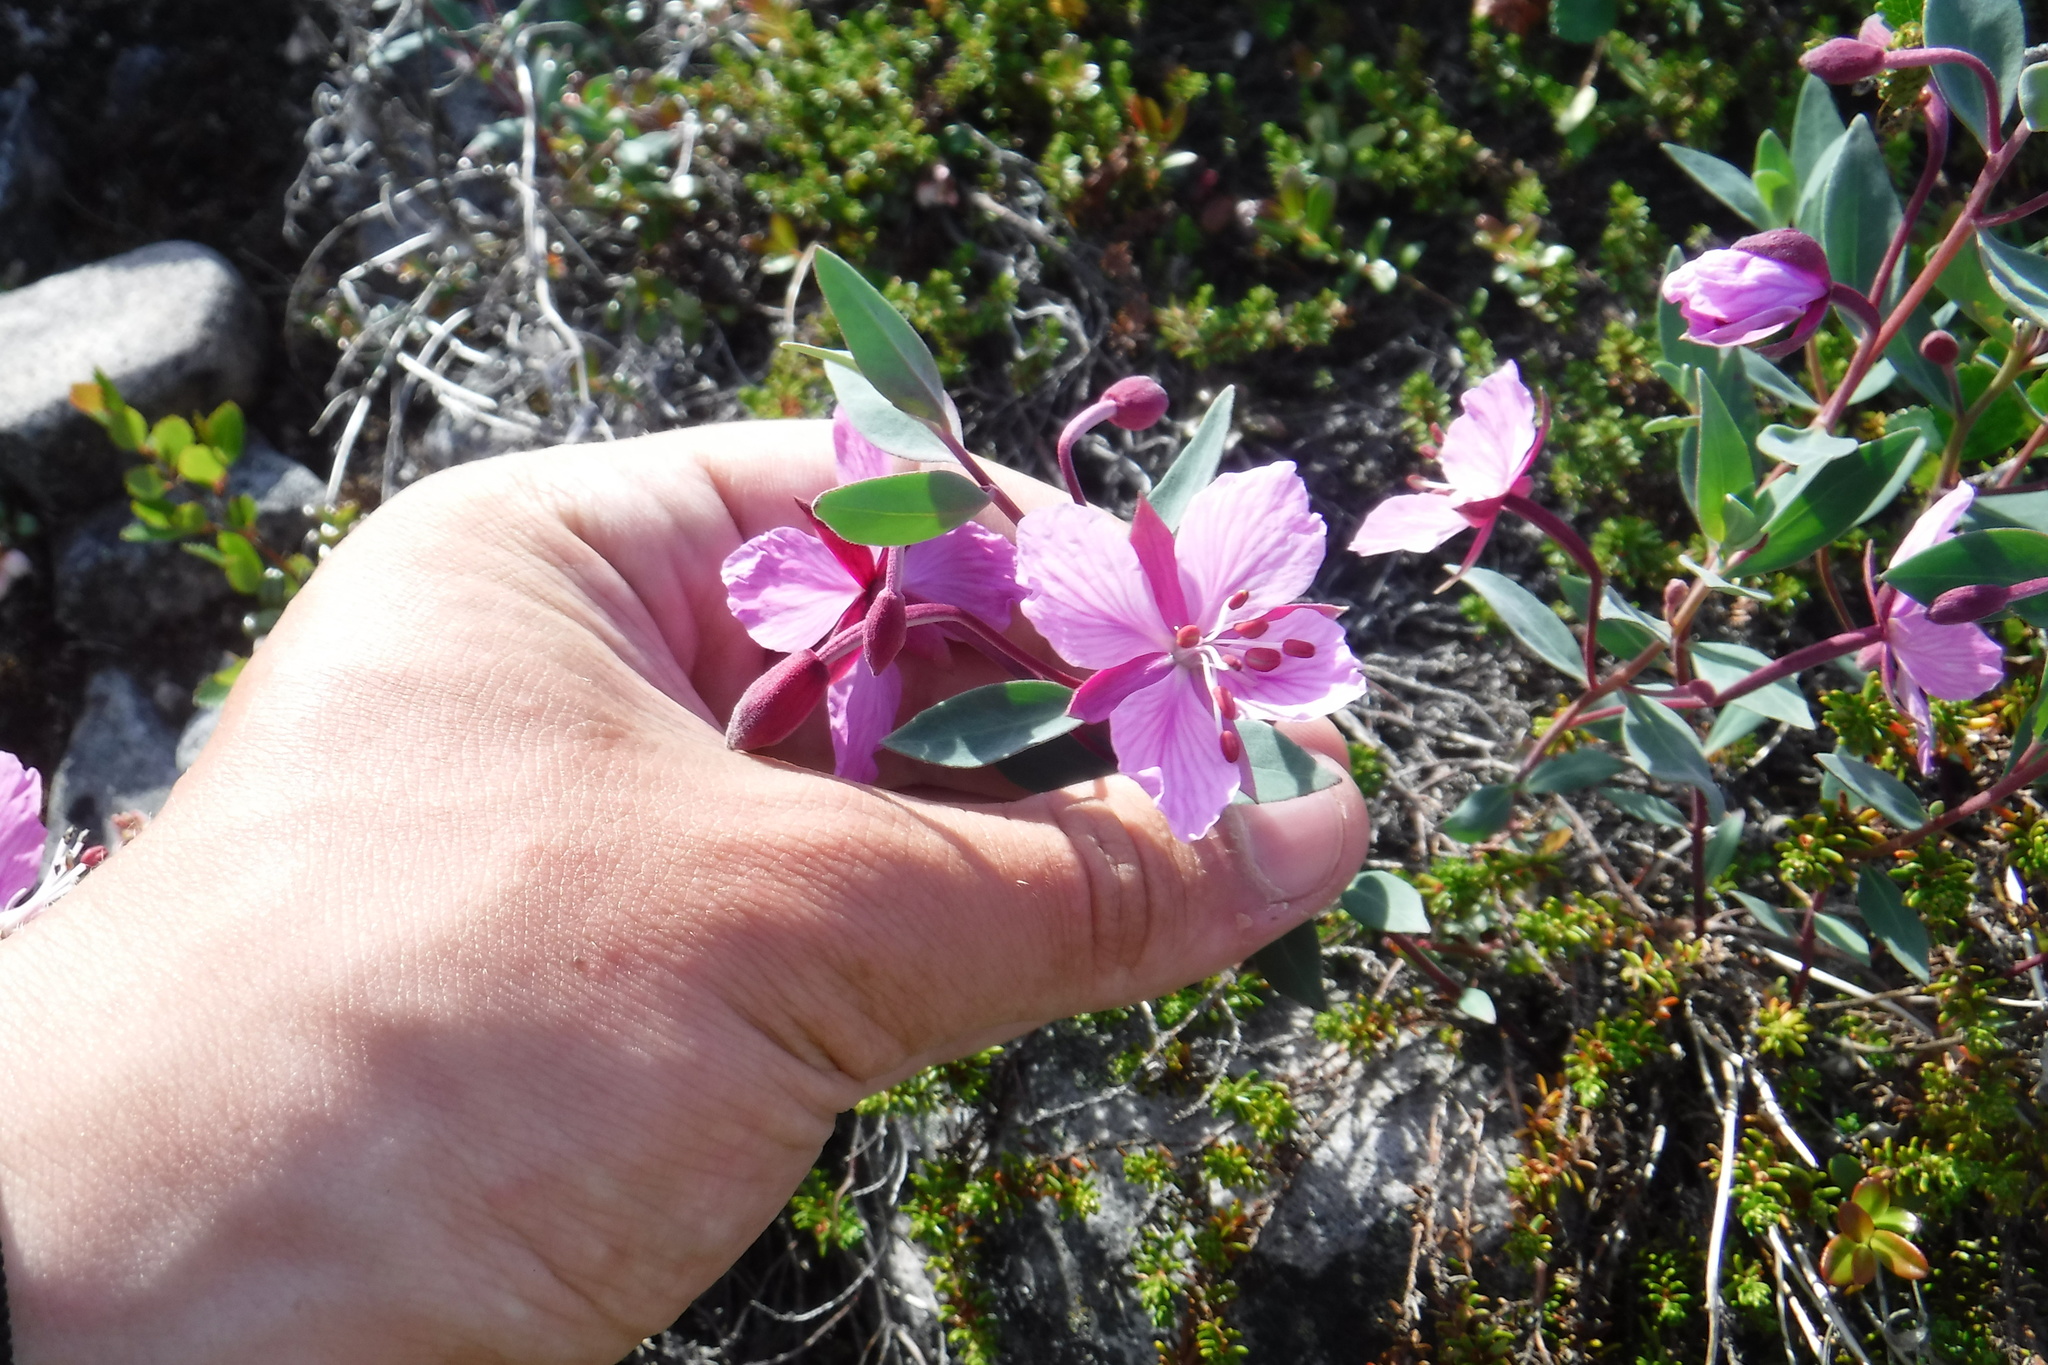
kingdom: Plantae
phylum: Tracheophyta
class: Magnoliopsida
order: Myrtales
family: Onagraceae
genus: Chamaenerion
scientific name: Chamaenerion latifolium
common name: Dwarf fireweed
